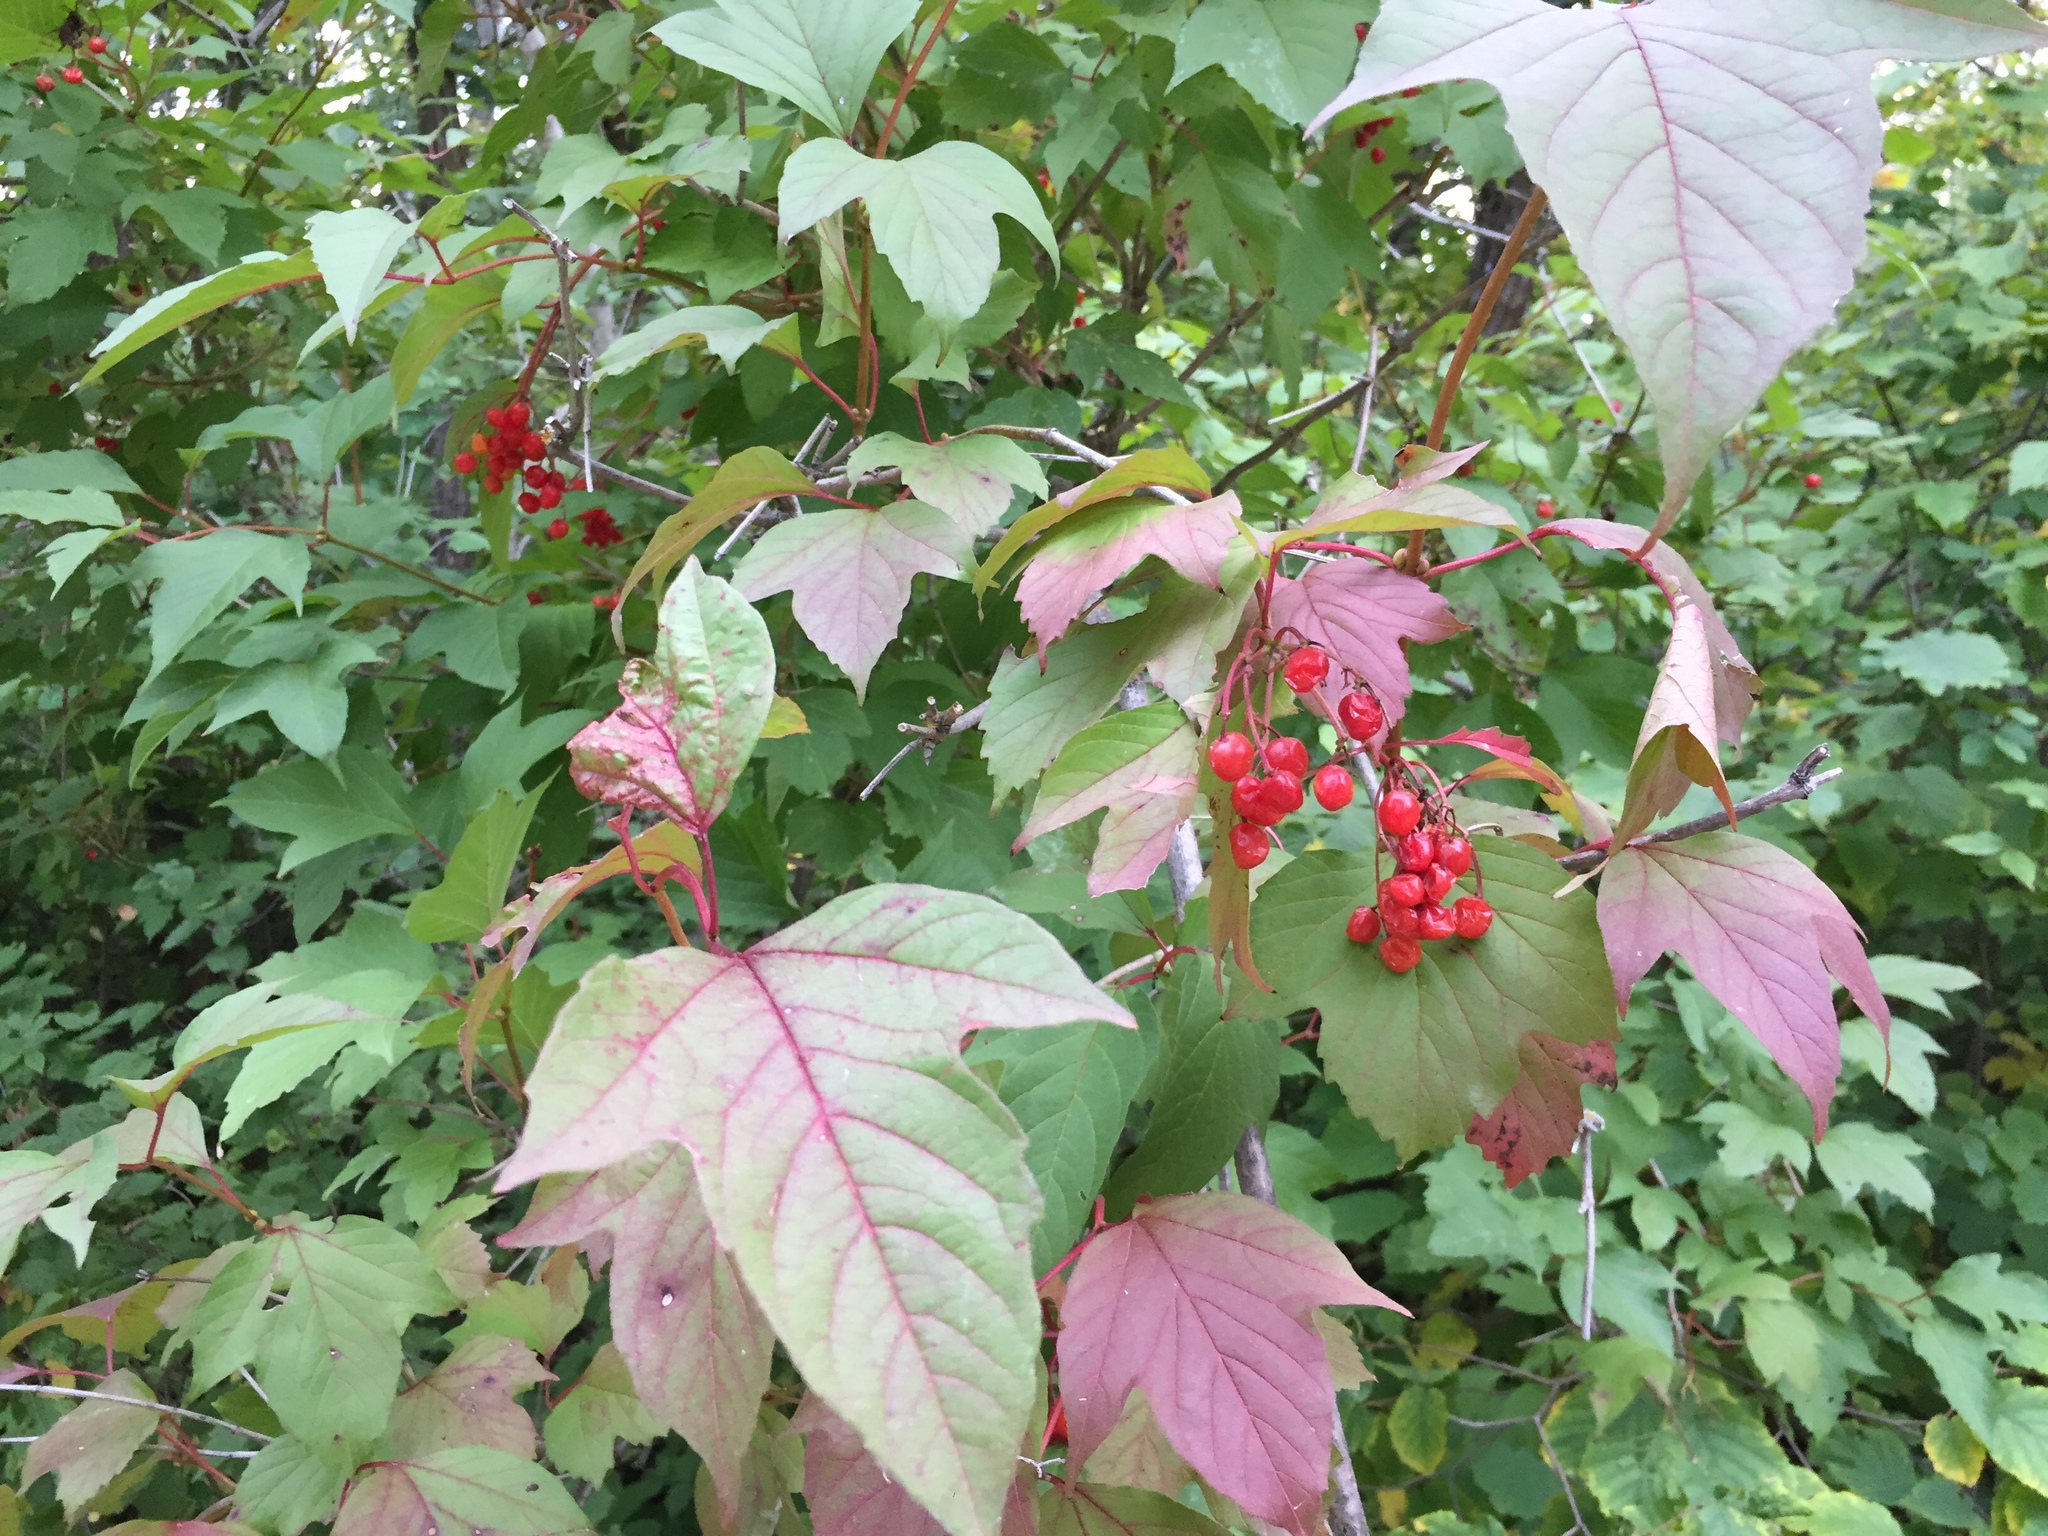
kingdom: Plantae
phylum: Tracheophyta
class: Magnoliopsida
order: Dipsacales
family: Viburnaceae
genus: Viburnum
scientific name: Viburnum trilobum
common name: American cranberrybush
